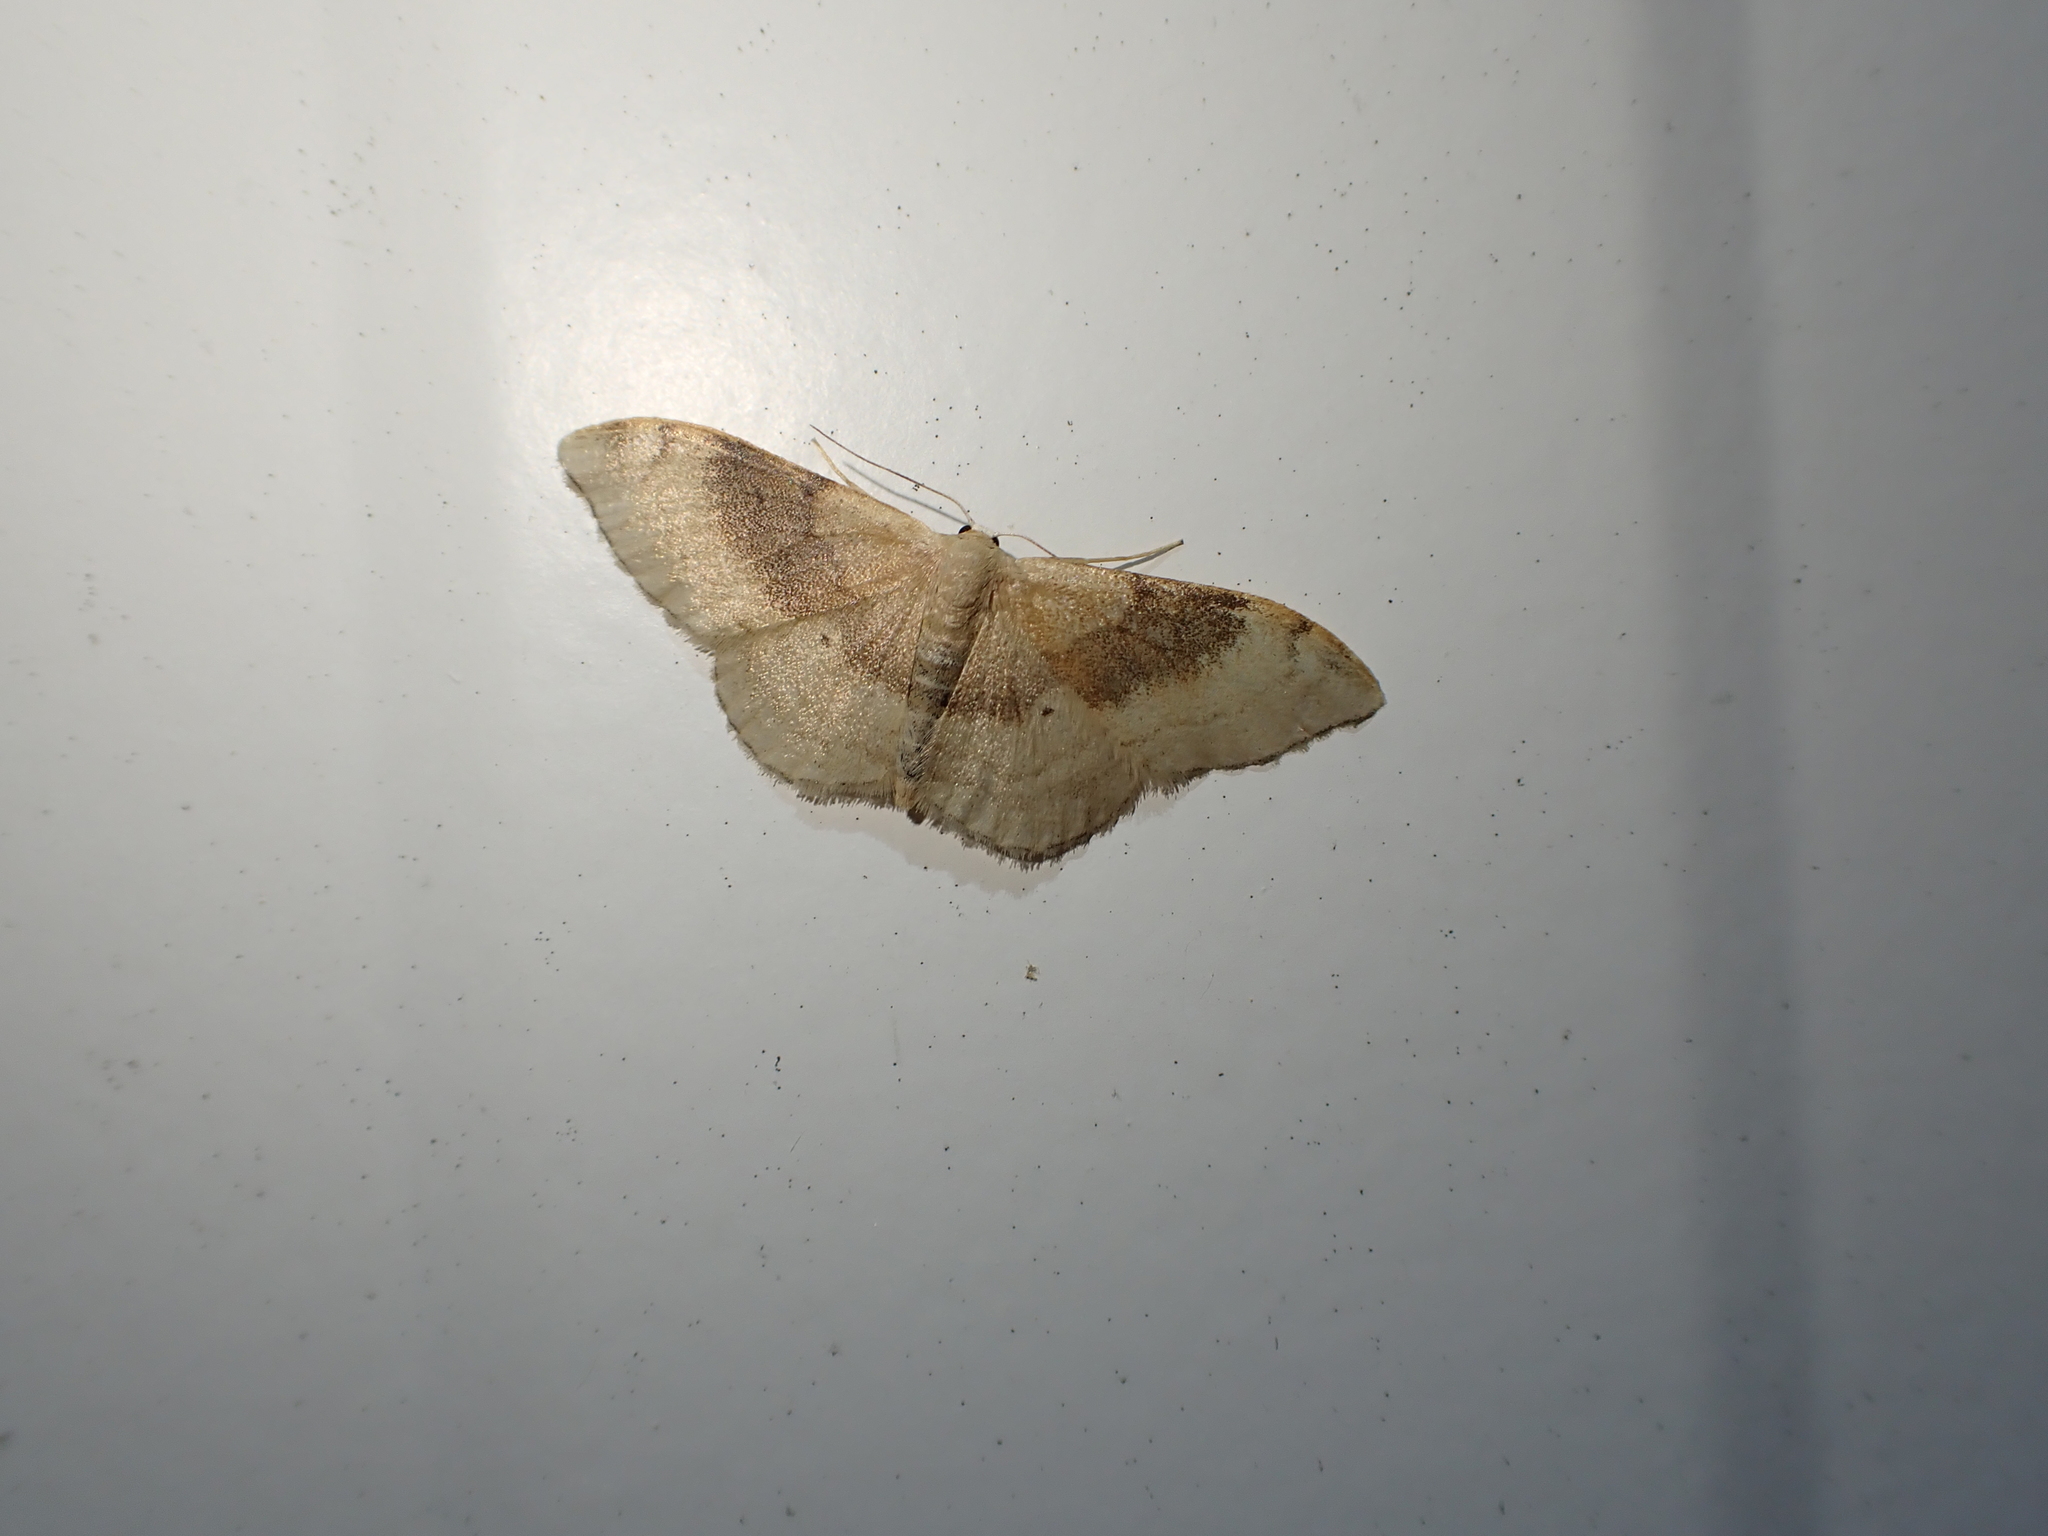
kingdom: Animalia
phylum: Arthropoda
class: Insecta
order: Lepidoptera
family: Geometridae
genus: Idaea
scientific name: Idaea degeneraria
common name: Portland ribbon wave
